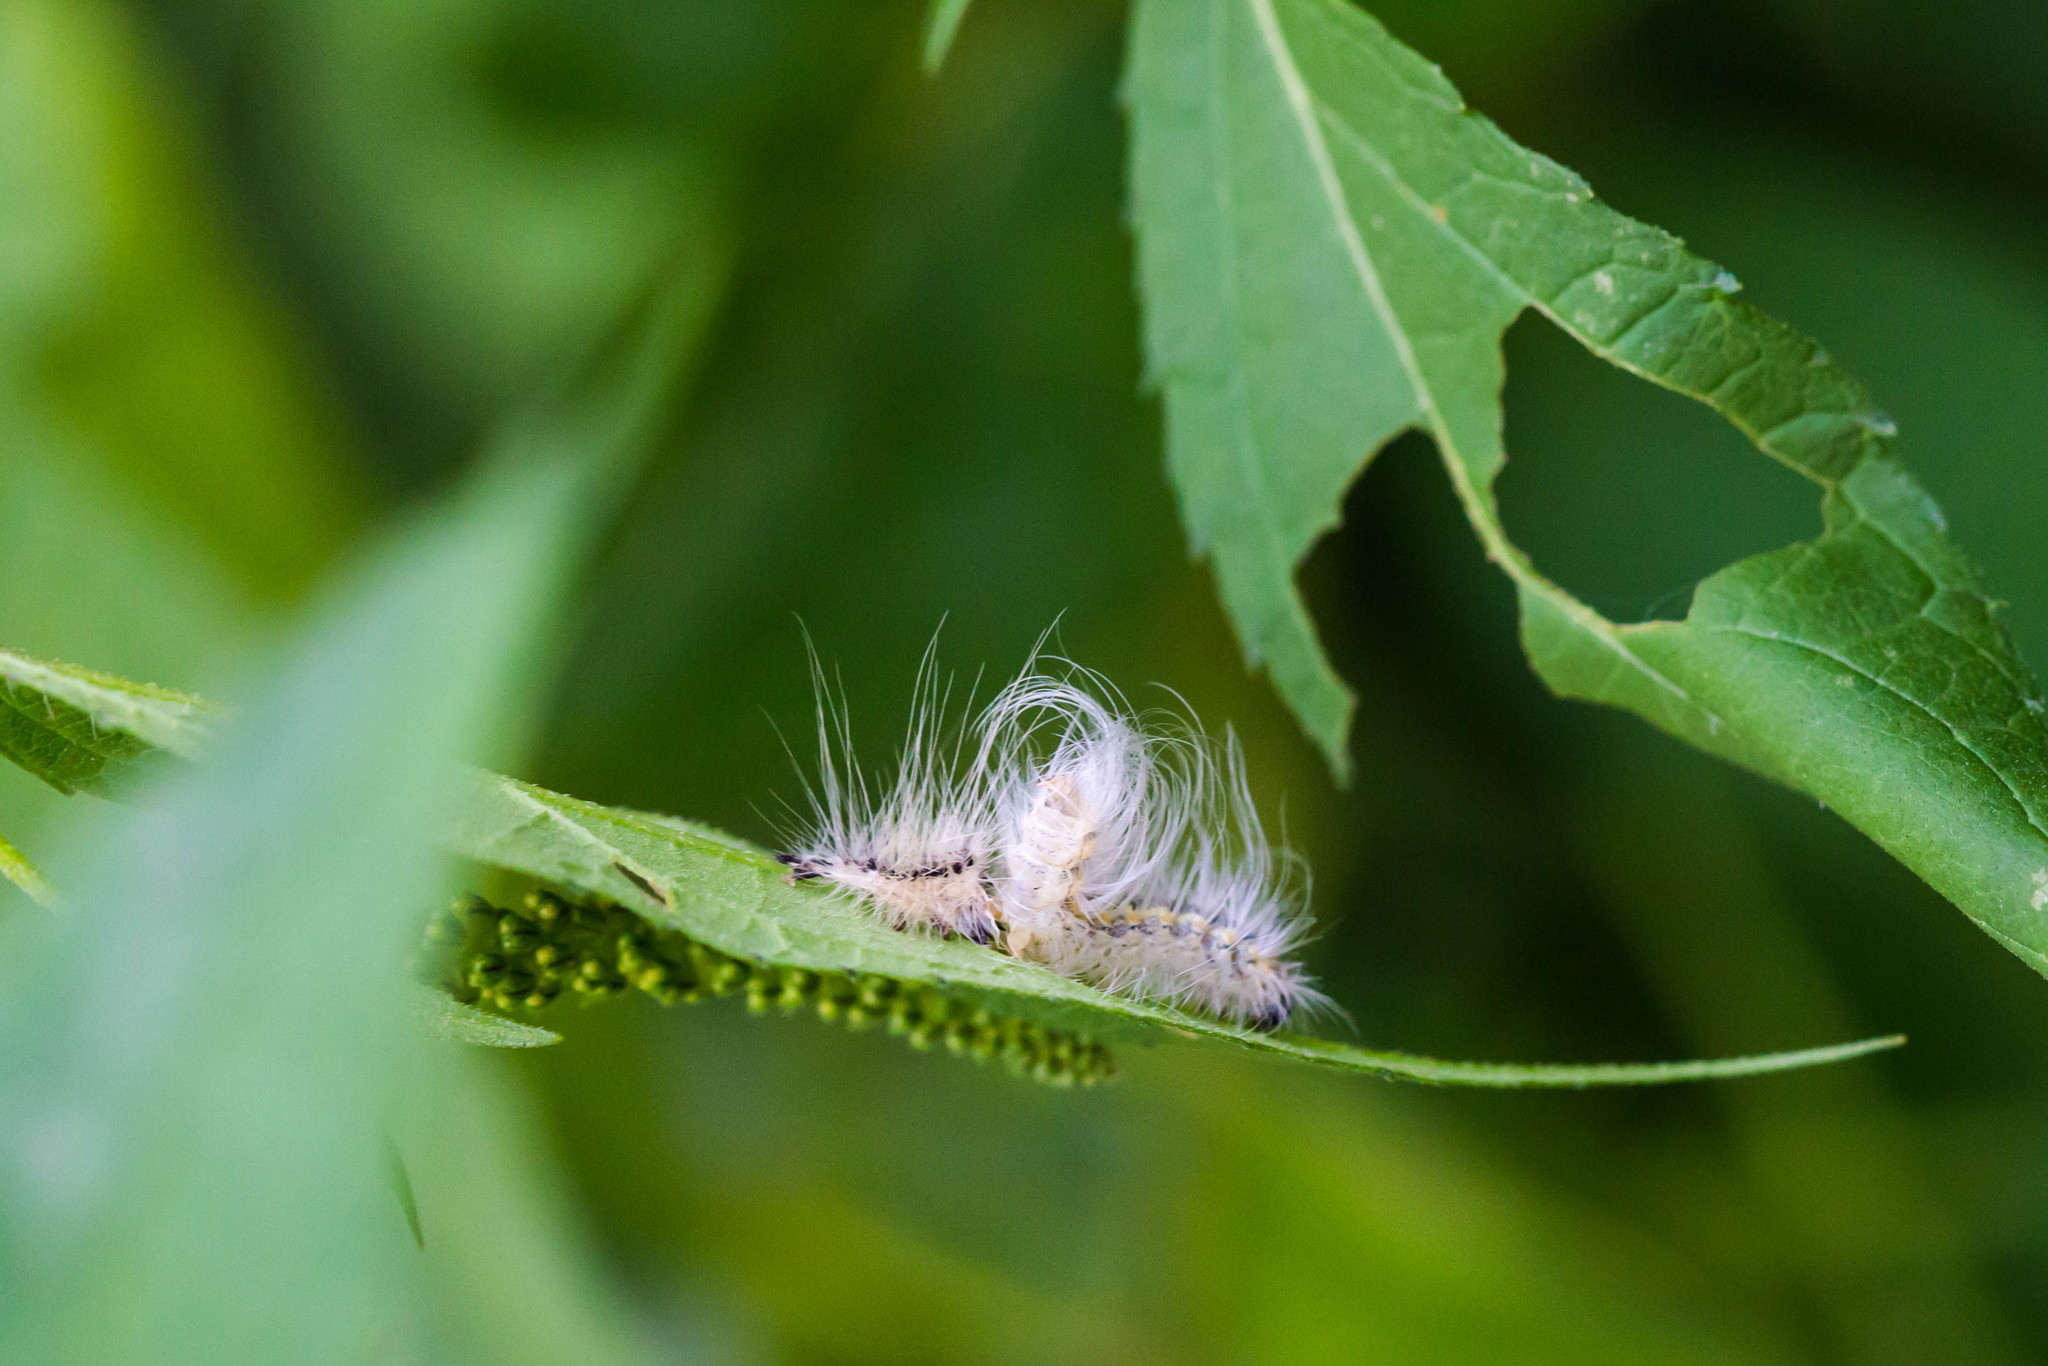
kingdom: Animalia
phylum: Arthropoda
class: Insecta
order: Lepidoptera
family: Erebidae
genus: Hyphantria
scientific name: Hyphantria cunea
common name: American white moth
